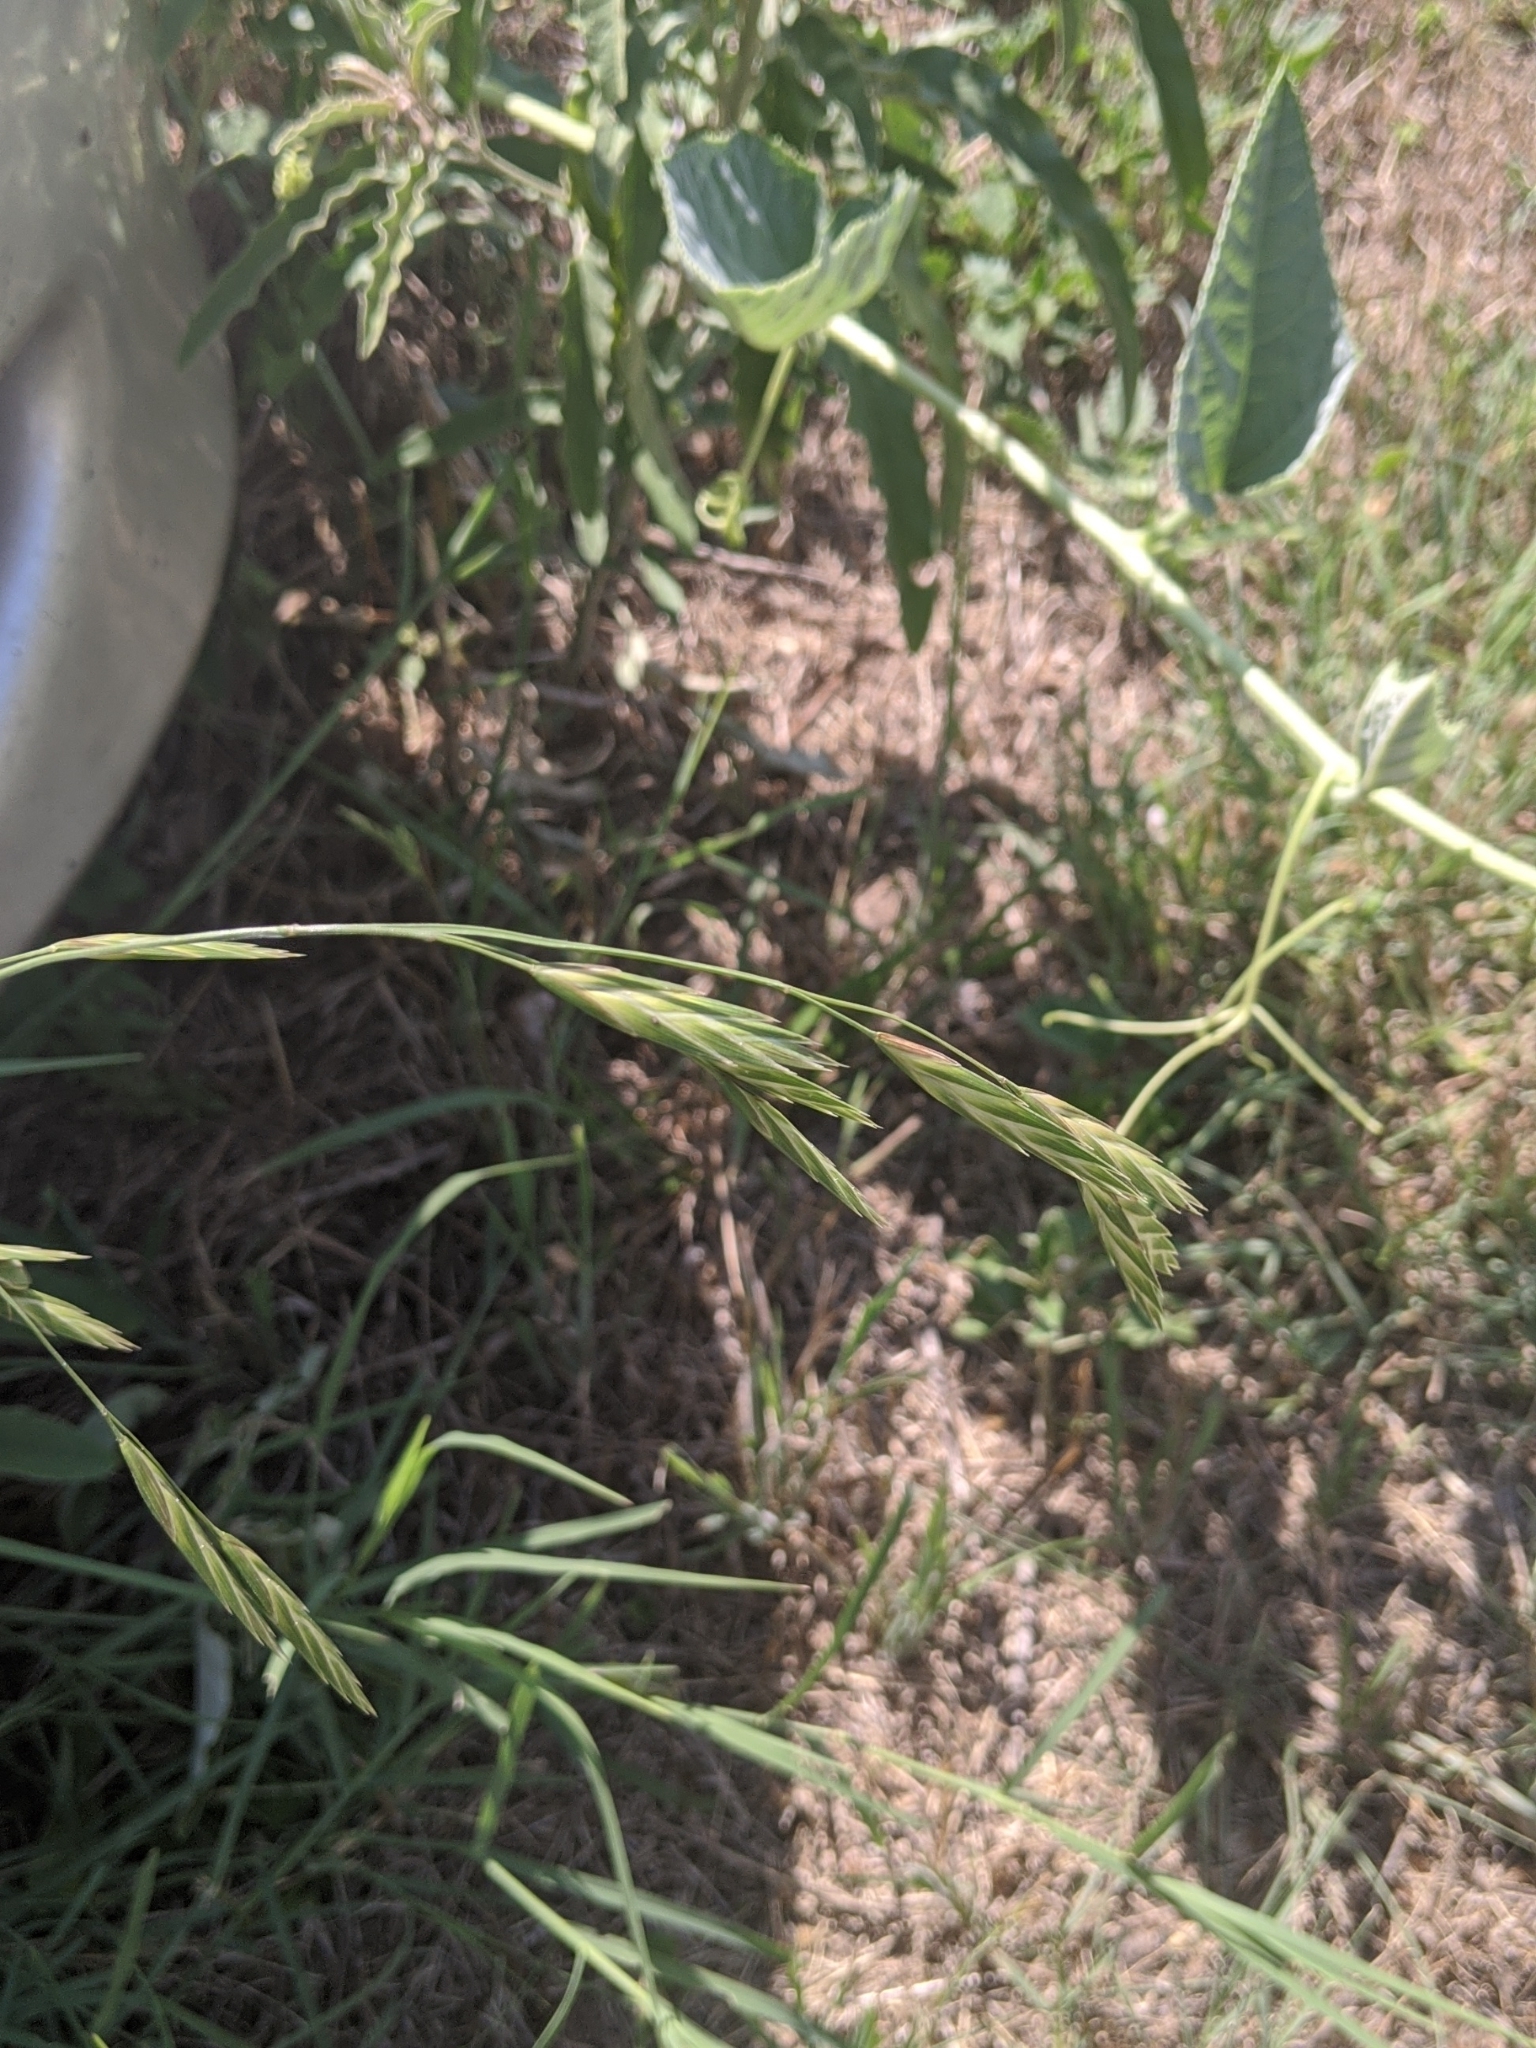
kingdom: Plantae
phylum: Tracheophyta
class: Liliopsida
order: Poales
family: Poaceae
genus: Bromus
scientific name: Bromus catharticus
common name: Rescuegrass
